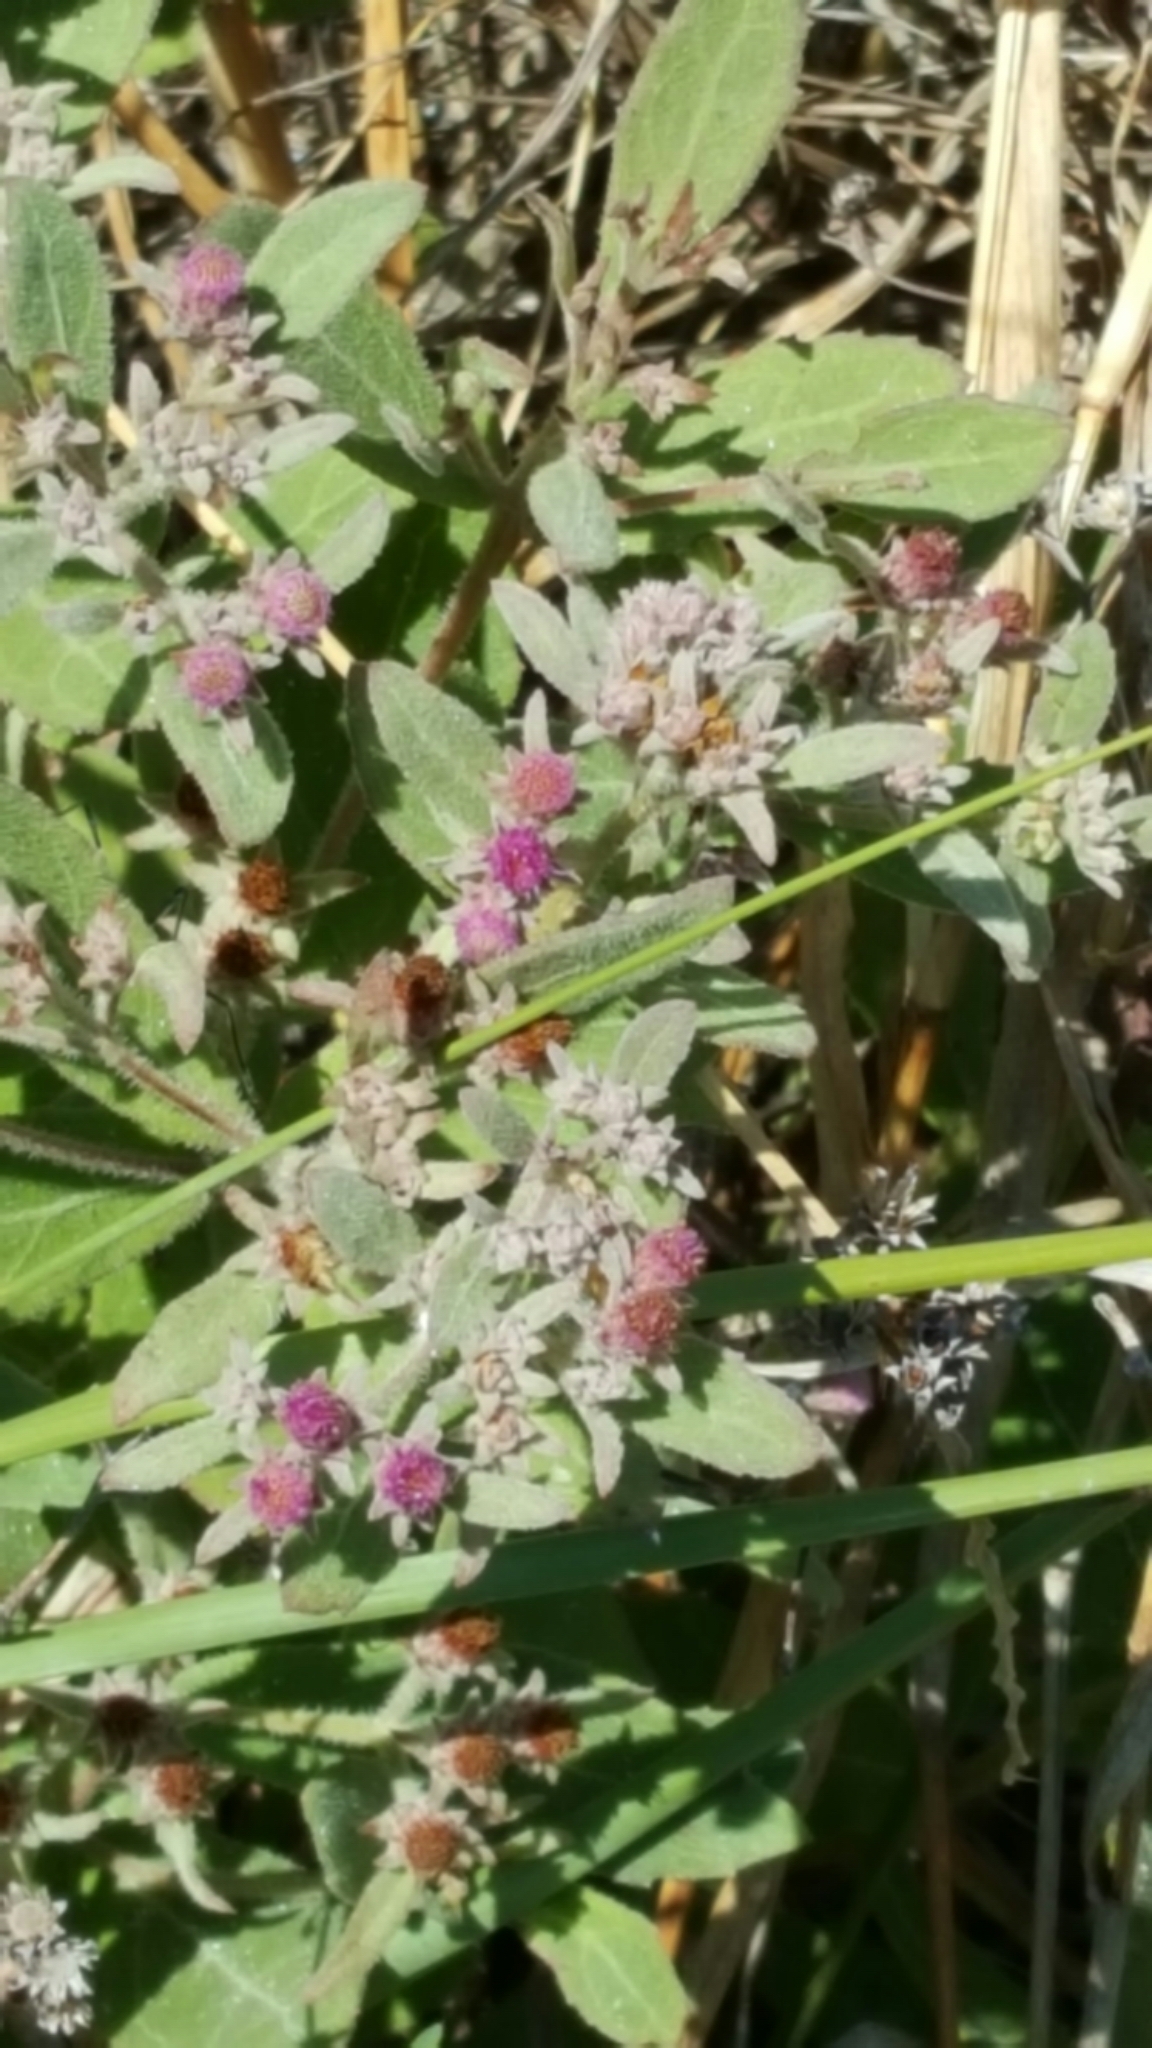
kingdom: Plantae
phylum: Tracheophyta
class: Magnoliopsida
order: Asterales
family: Asteraceae
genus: Pluchea
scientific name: Pluchea baccharis
